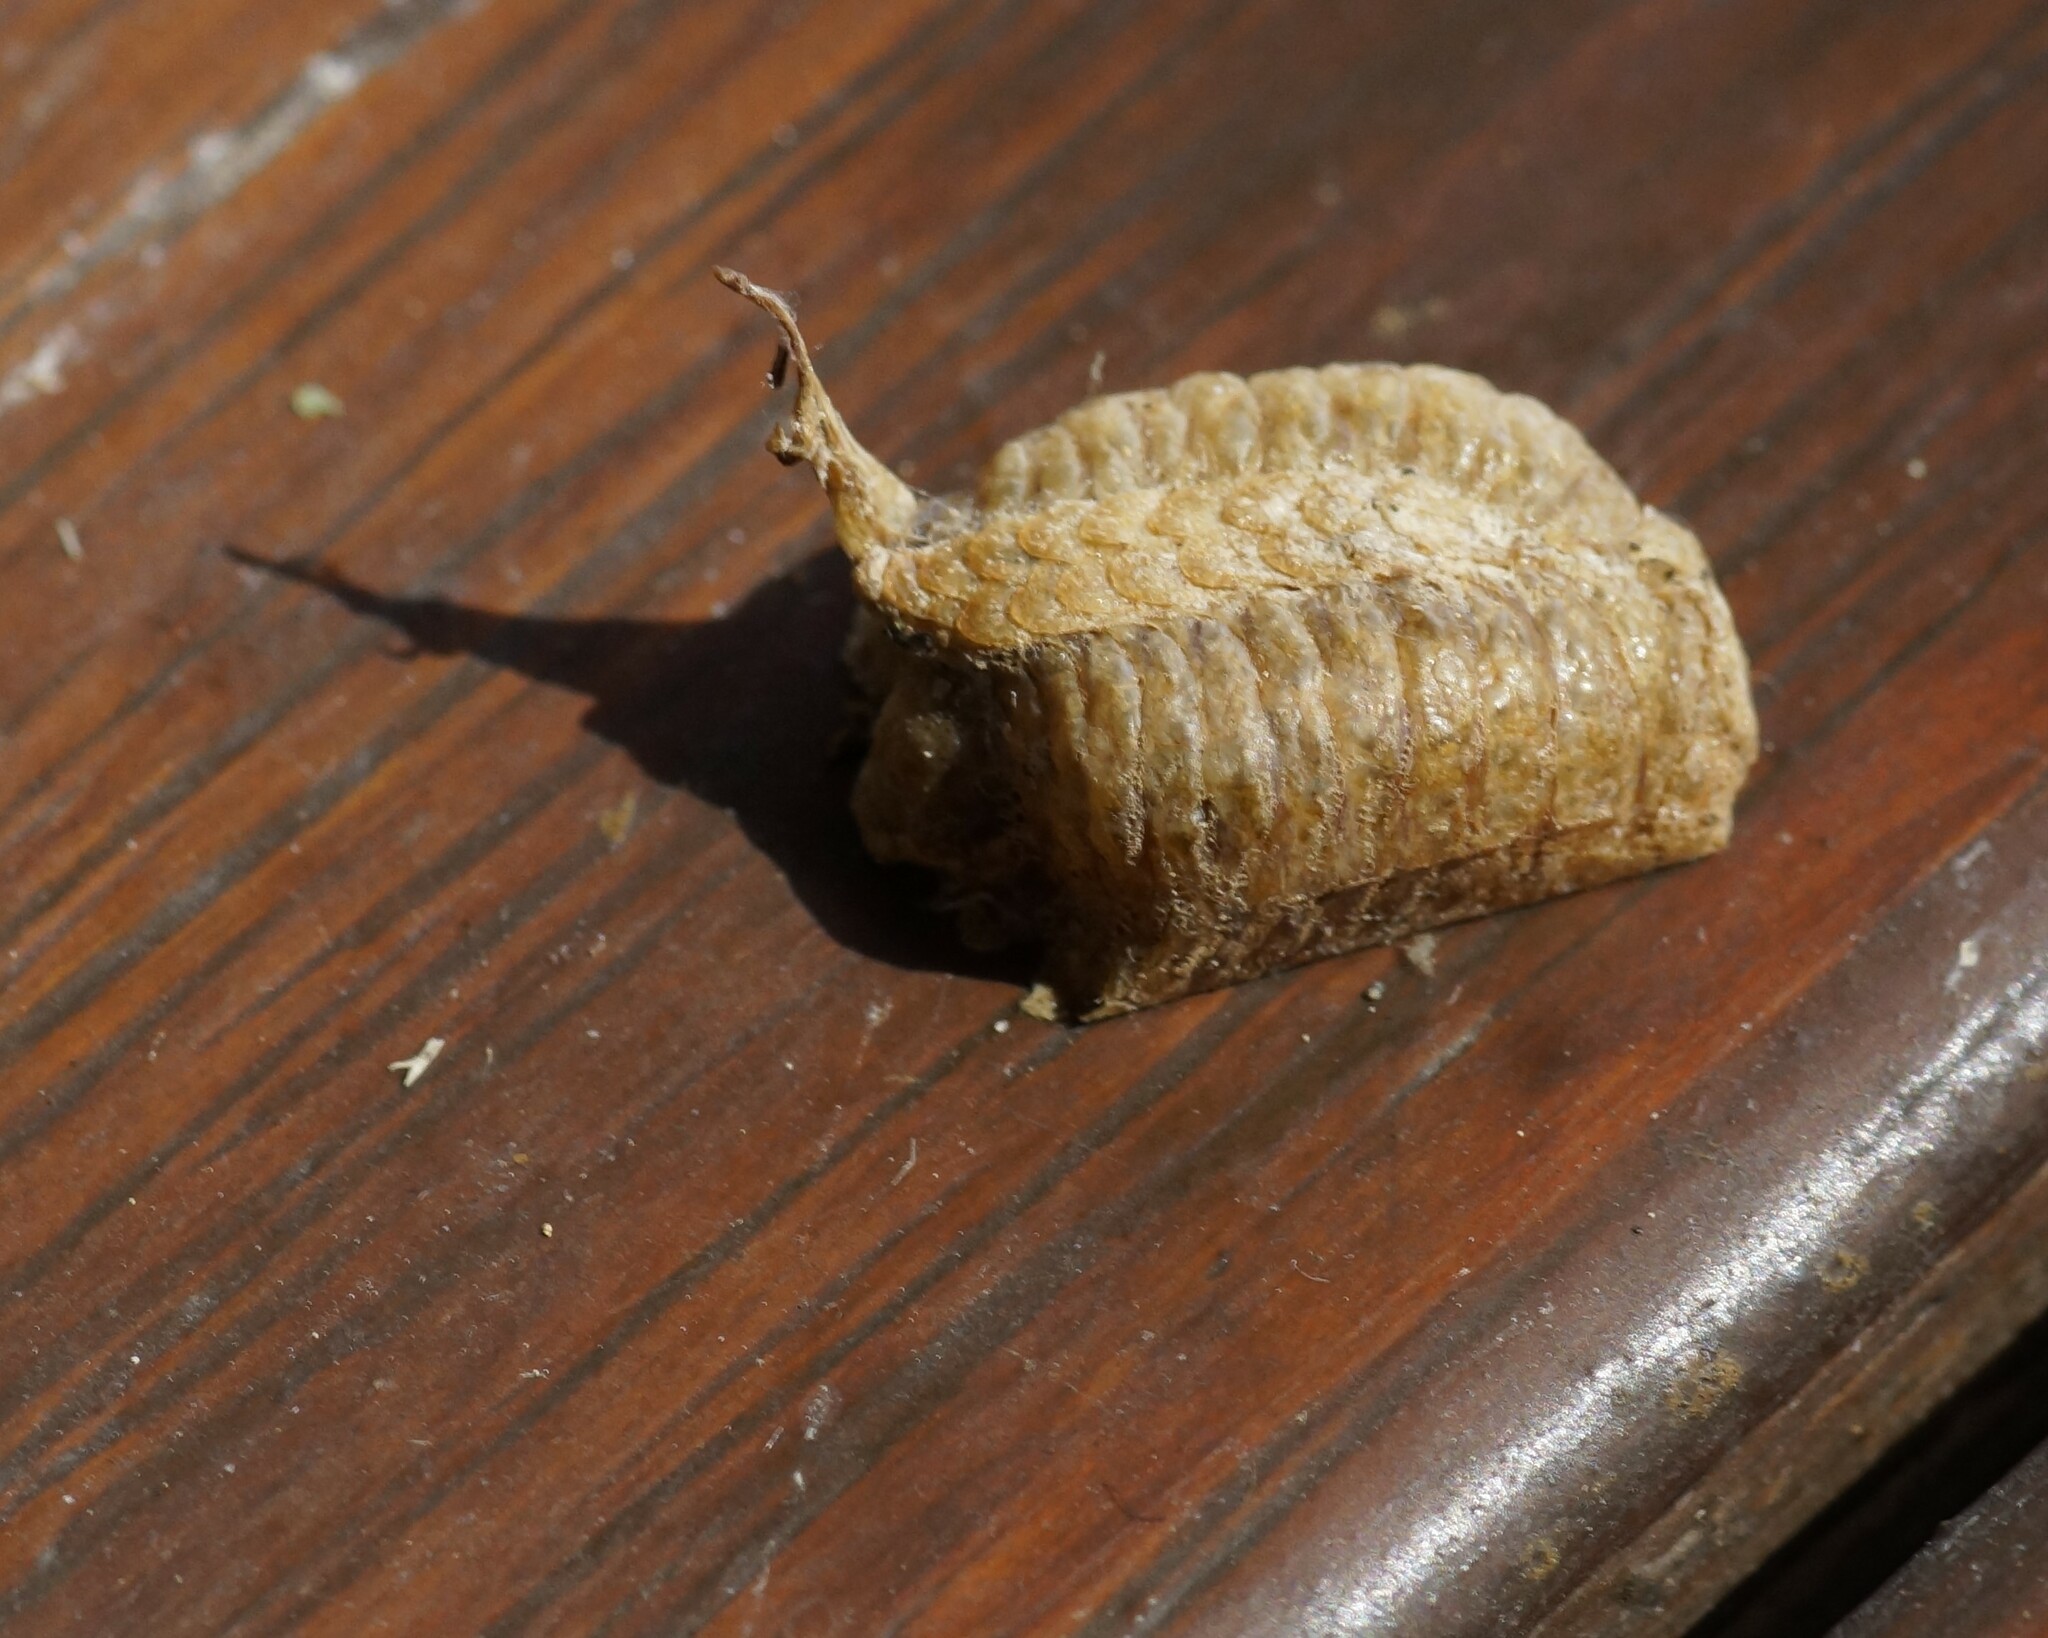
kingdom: Animalia
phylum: Arthropoda
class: Insecta
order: Mantodea
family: Mantidae
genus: Pseudomantis
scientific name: Pseudomantis albofimbriata
